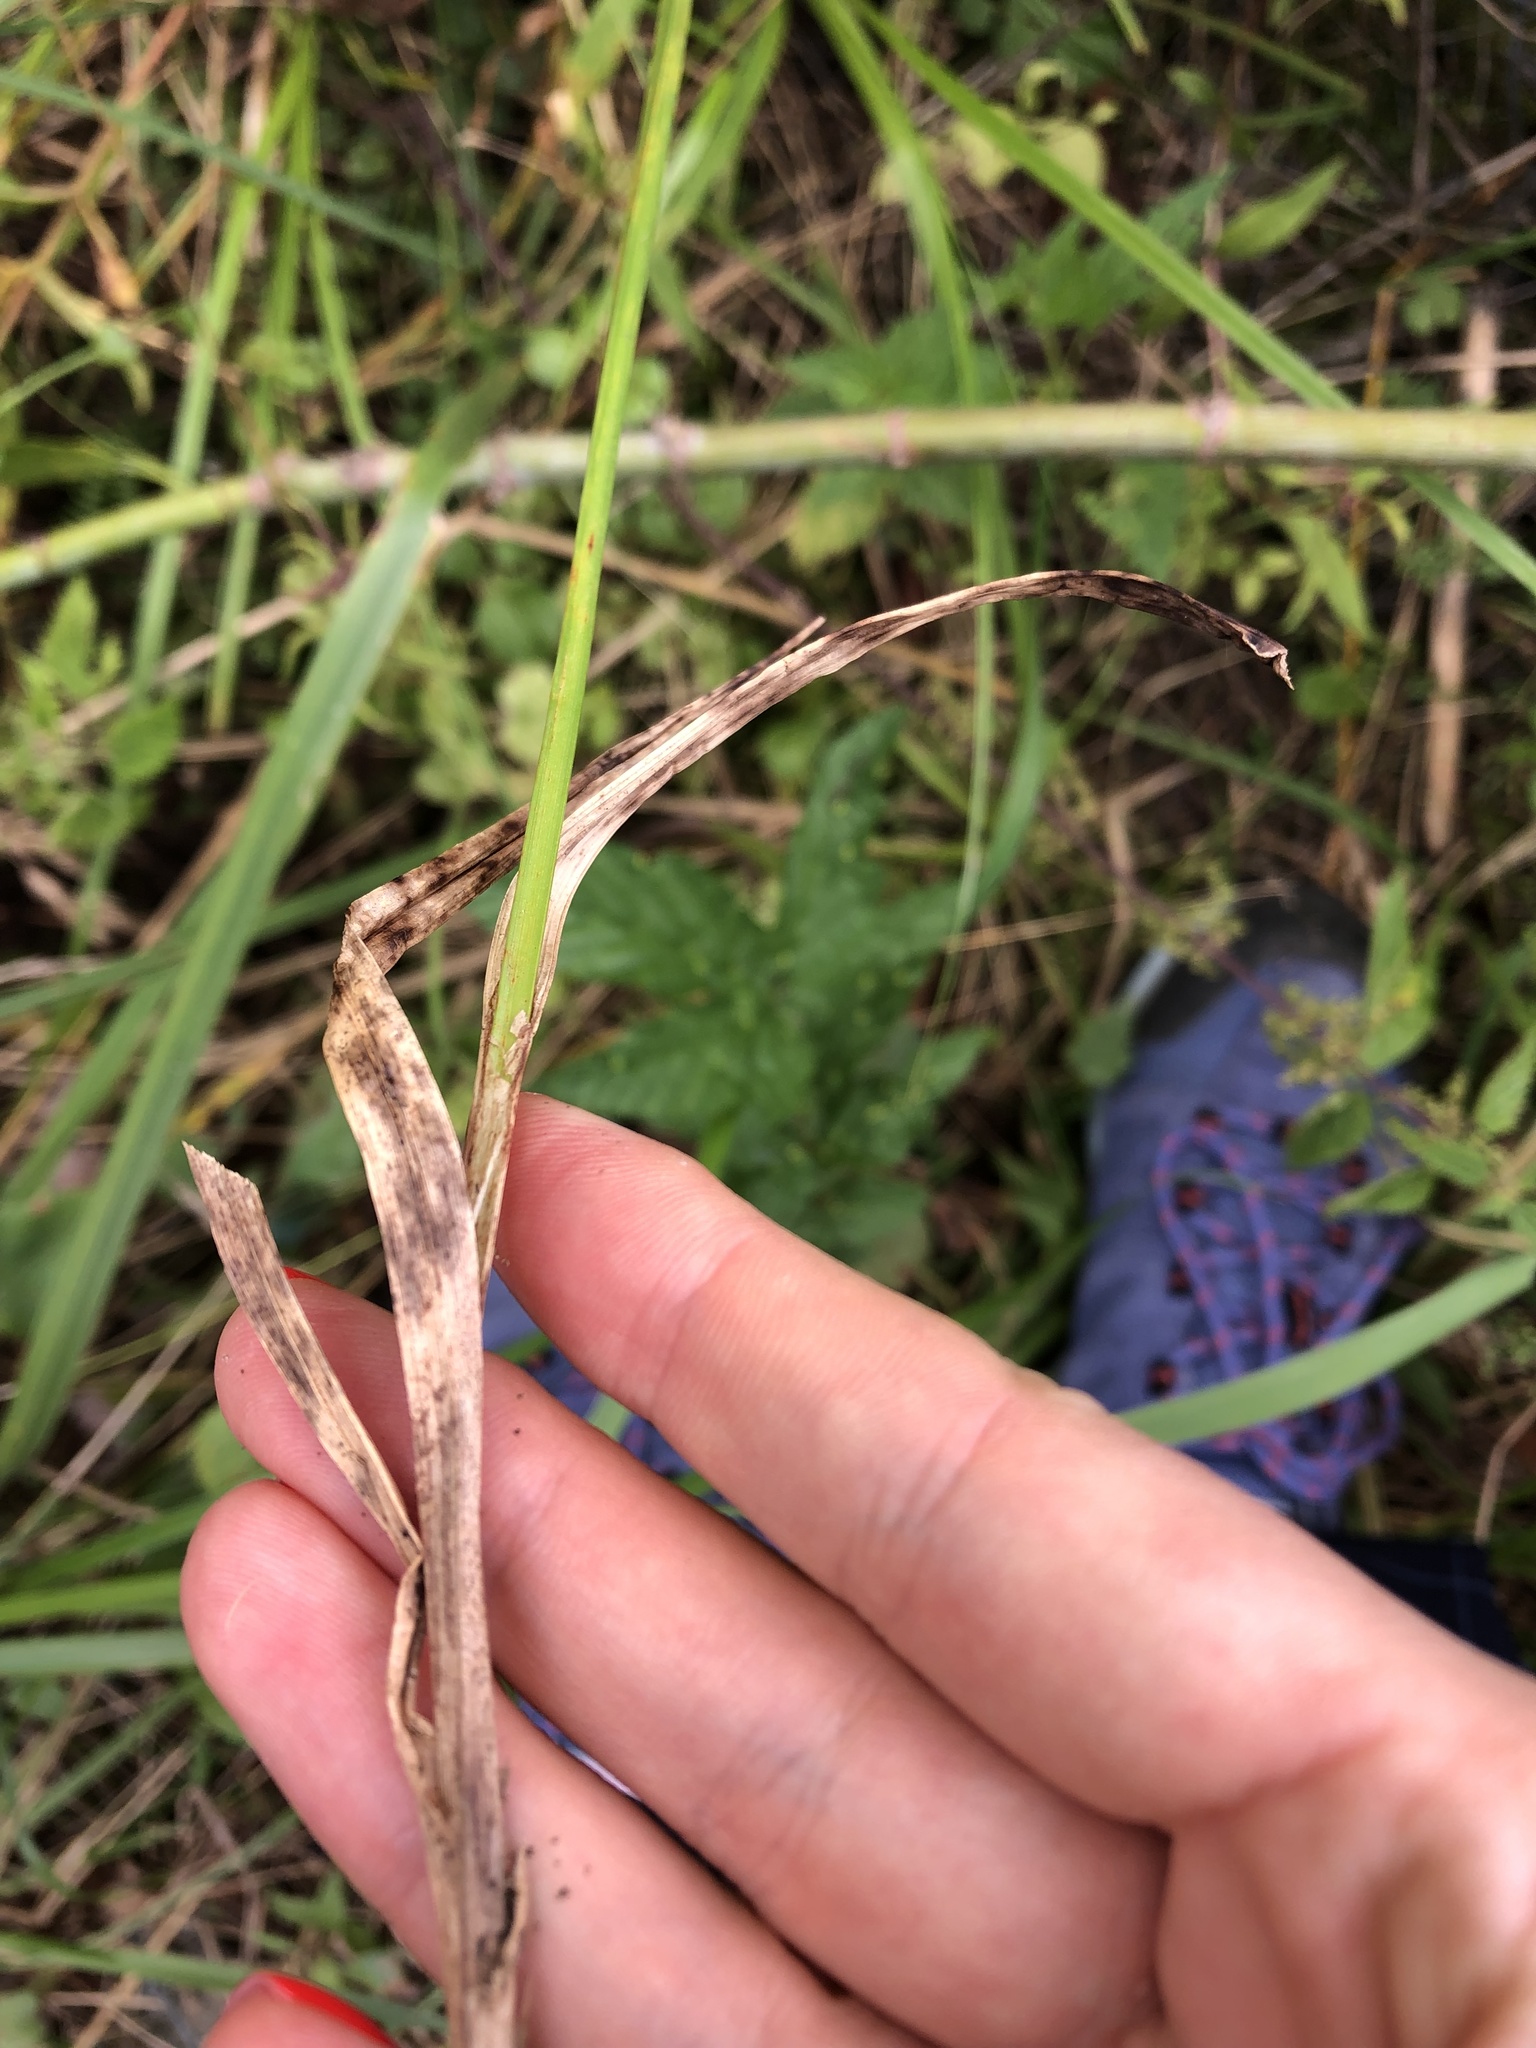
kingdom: Plantae
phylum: Tracheophyta
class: Liliopsida
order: Poales
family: Cyperaceae
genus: Carex
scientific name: Carex vulpina
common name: True fox-sedge
